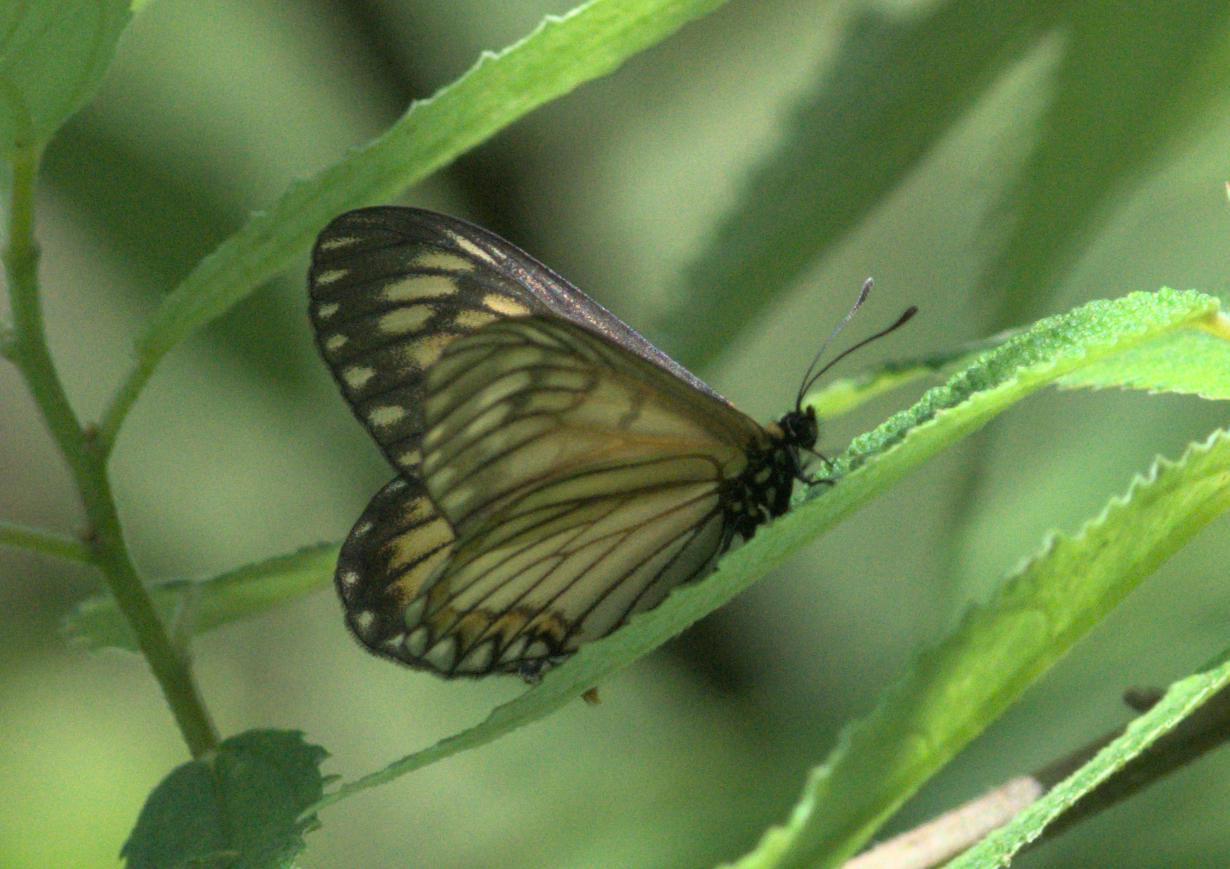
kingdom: Animalia
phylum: Arthropoda
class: Insecta
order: Lepidoptera
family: Nymphalidae
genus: Acraea
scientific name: Acraea Telchinia issoria
